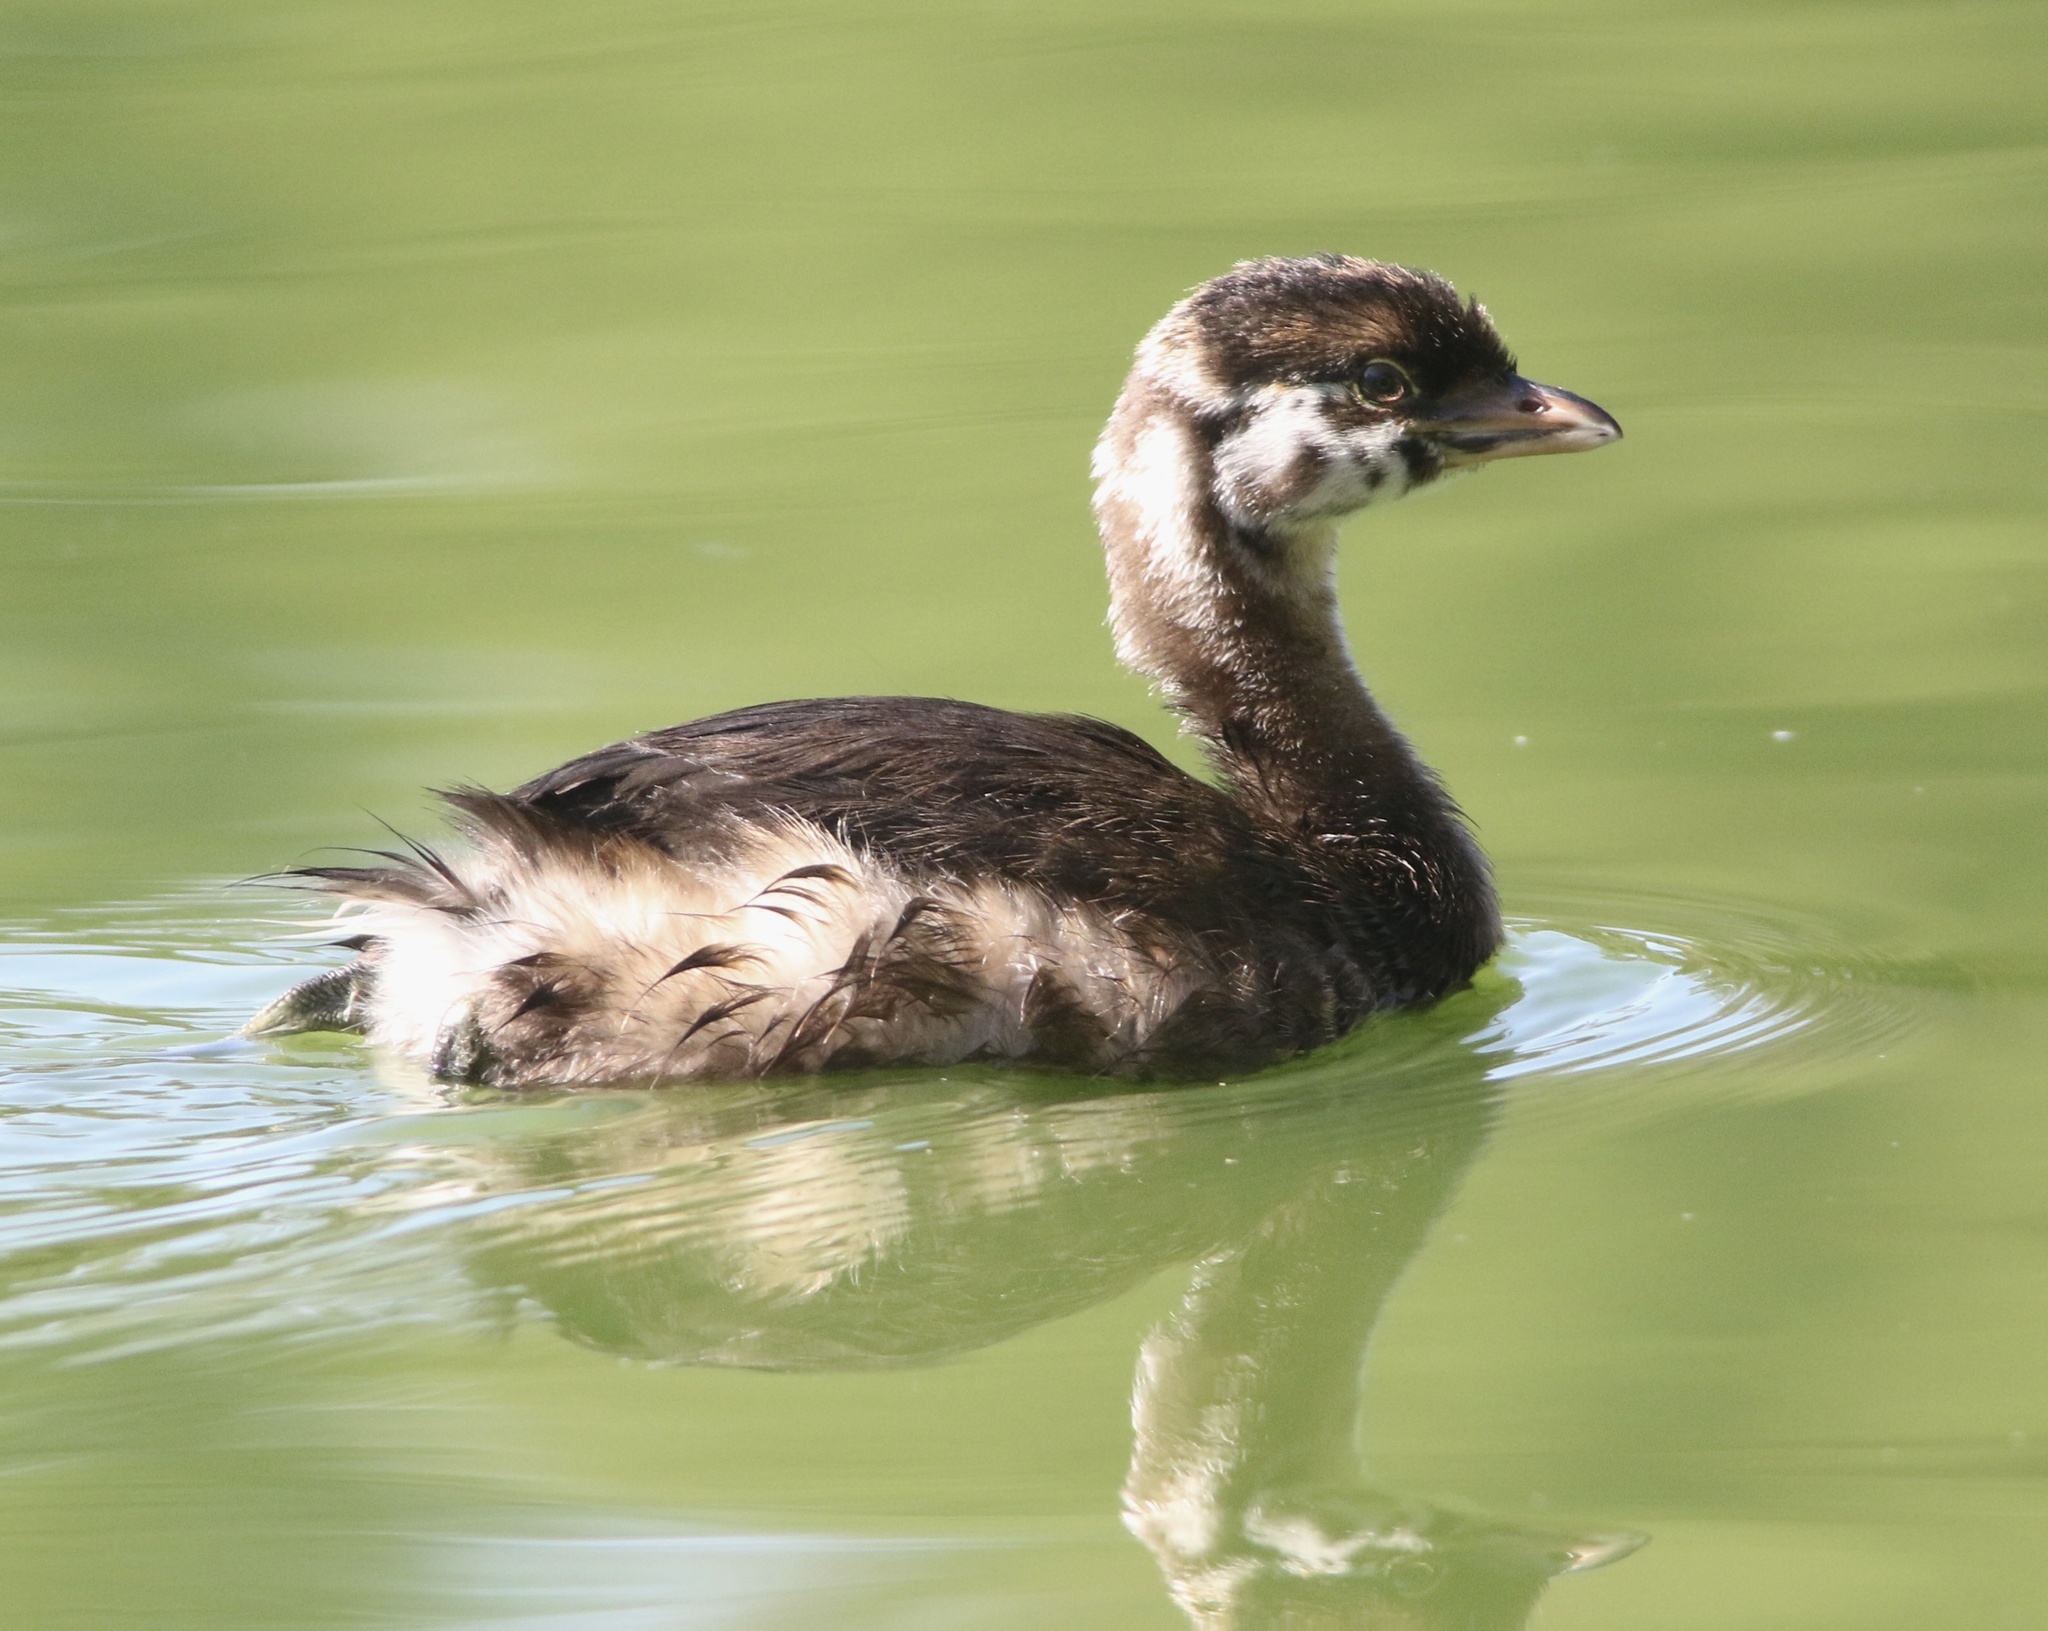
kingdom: Animalia
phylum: Chordata
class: Aves
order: Podicipediformes
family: Podicipedidae
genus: Podilymbus
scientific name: Podilymbus podiceps
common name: Pied-billed grebe
